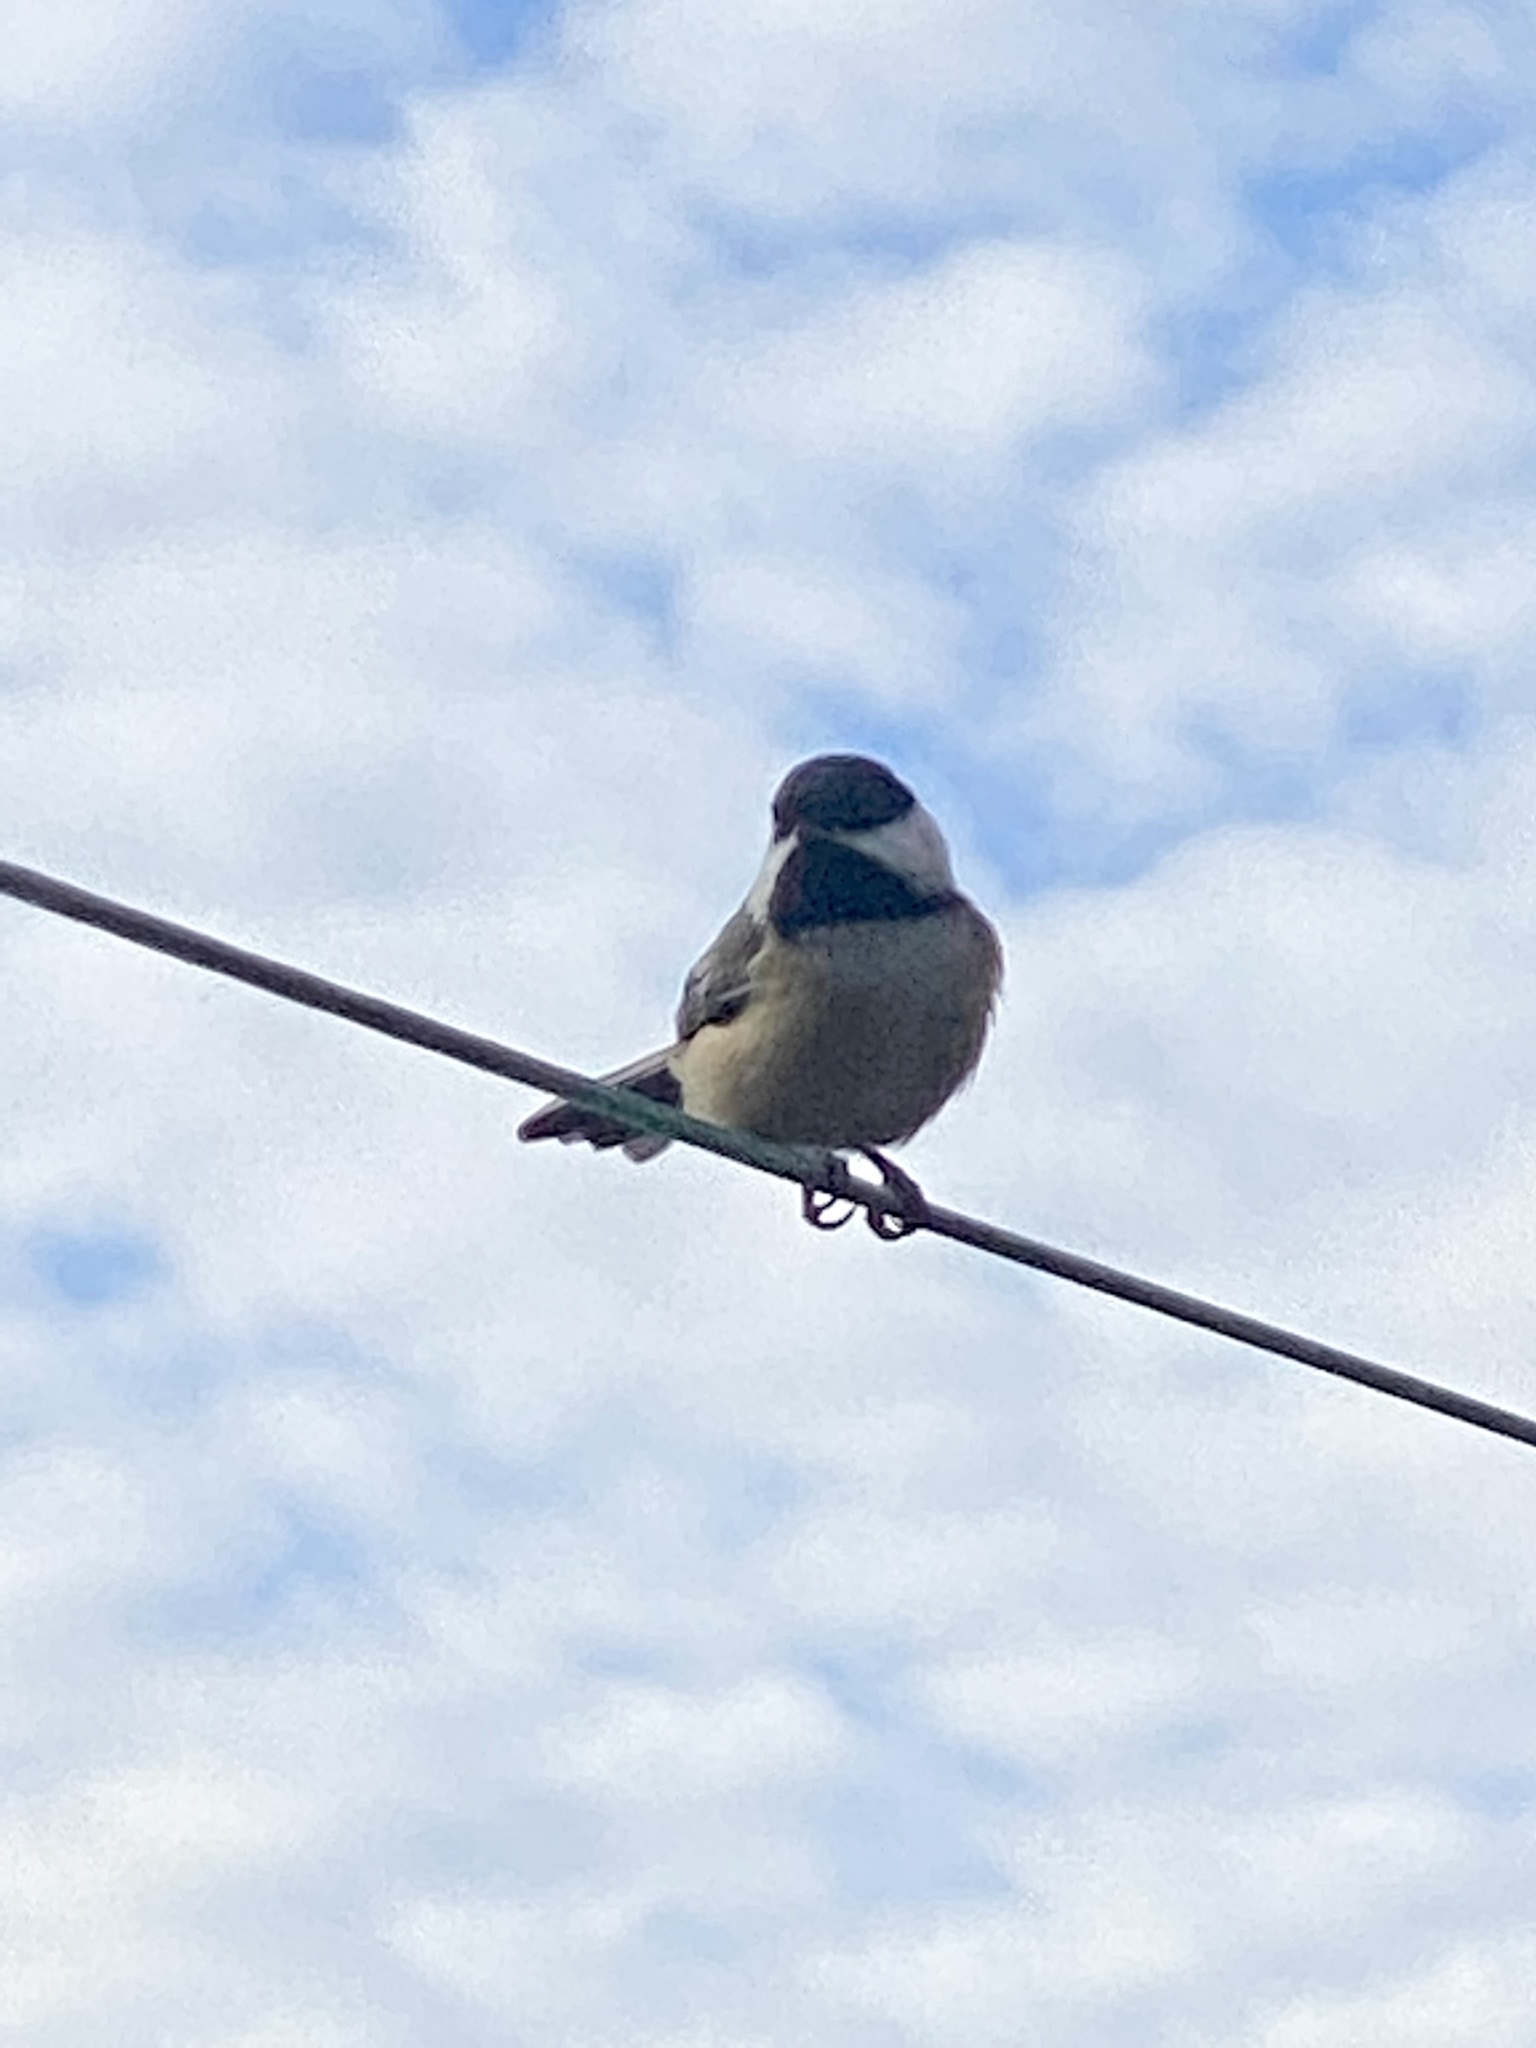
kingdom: Animalia
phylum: Chordata
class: Aves
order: Passeriformes
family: Paridae
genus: Poecile
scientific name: Poecile atricapillus
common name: Black-capped chickadee
